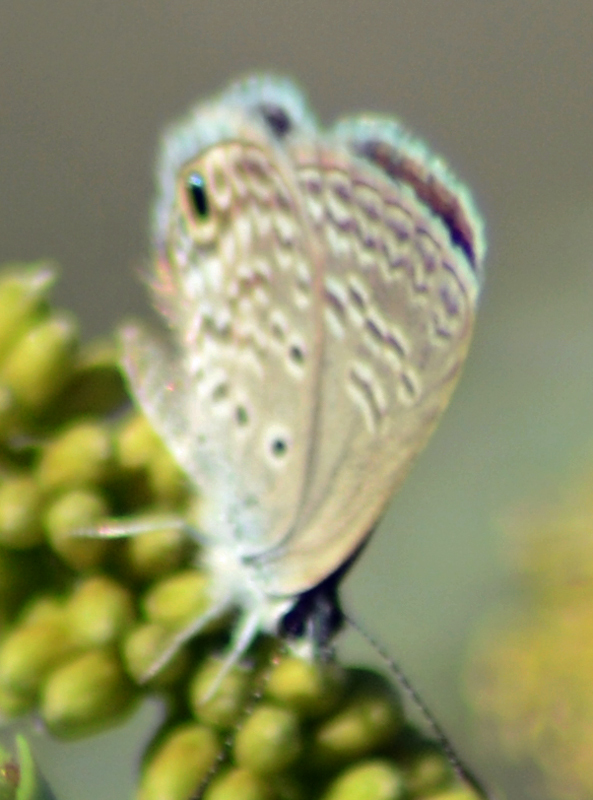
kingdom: Animalia
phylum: Arthropoda
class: Insecta
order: Lepidoptera
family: Lycaenidae
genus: Echinargus
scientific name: Echinargus isola
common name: Reakirt's blue
